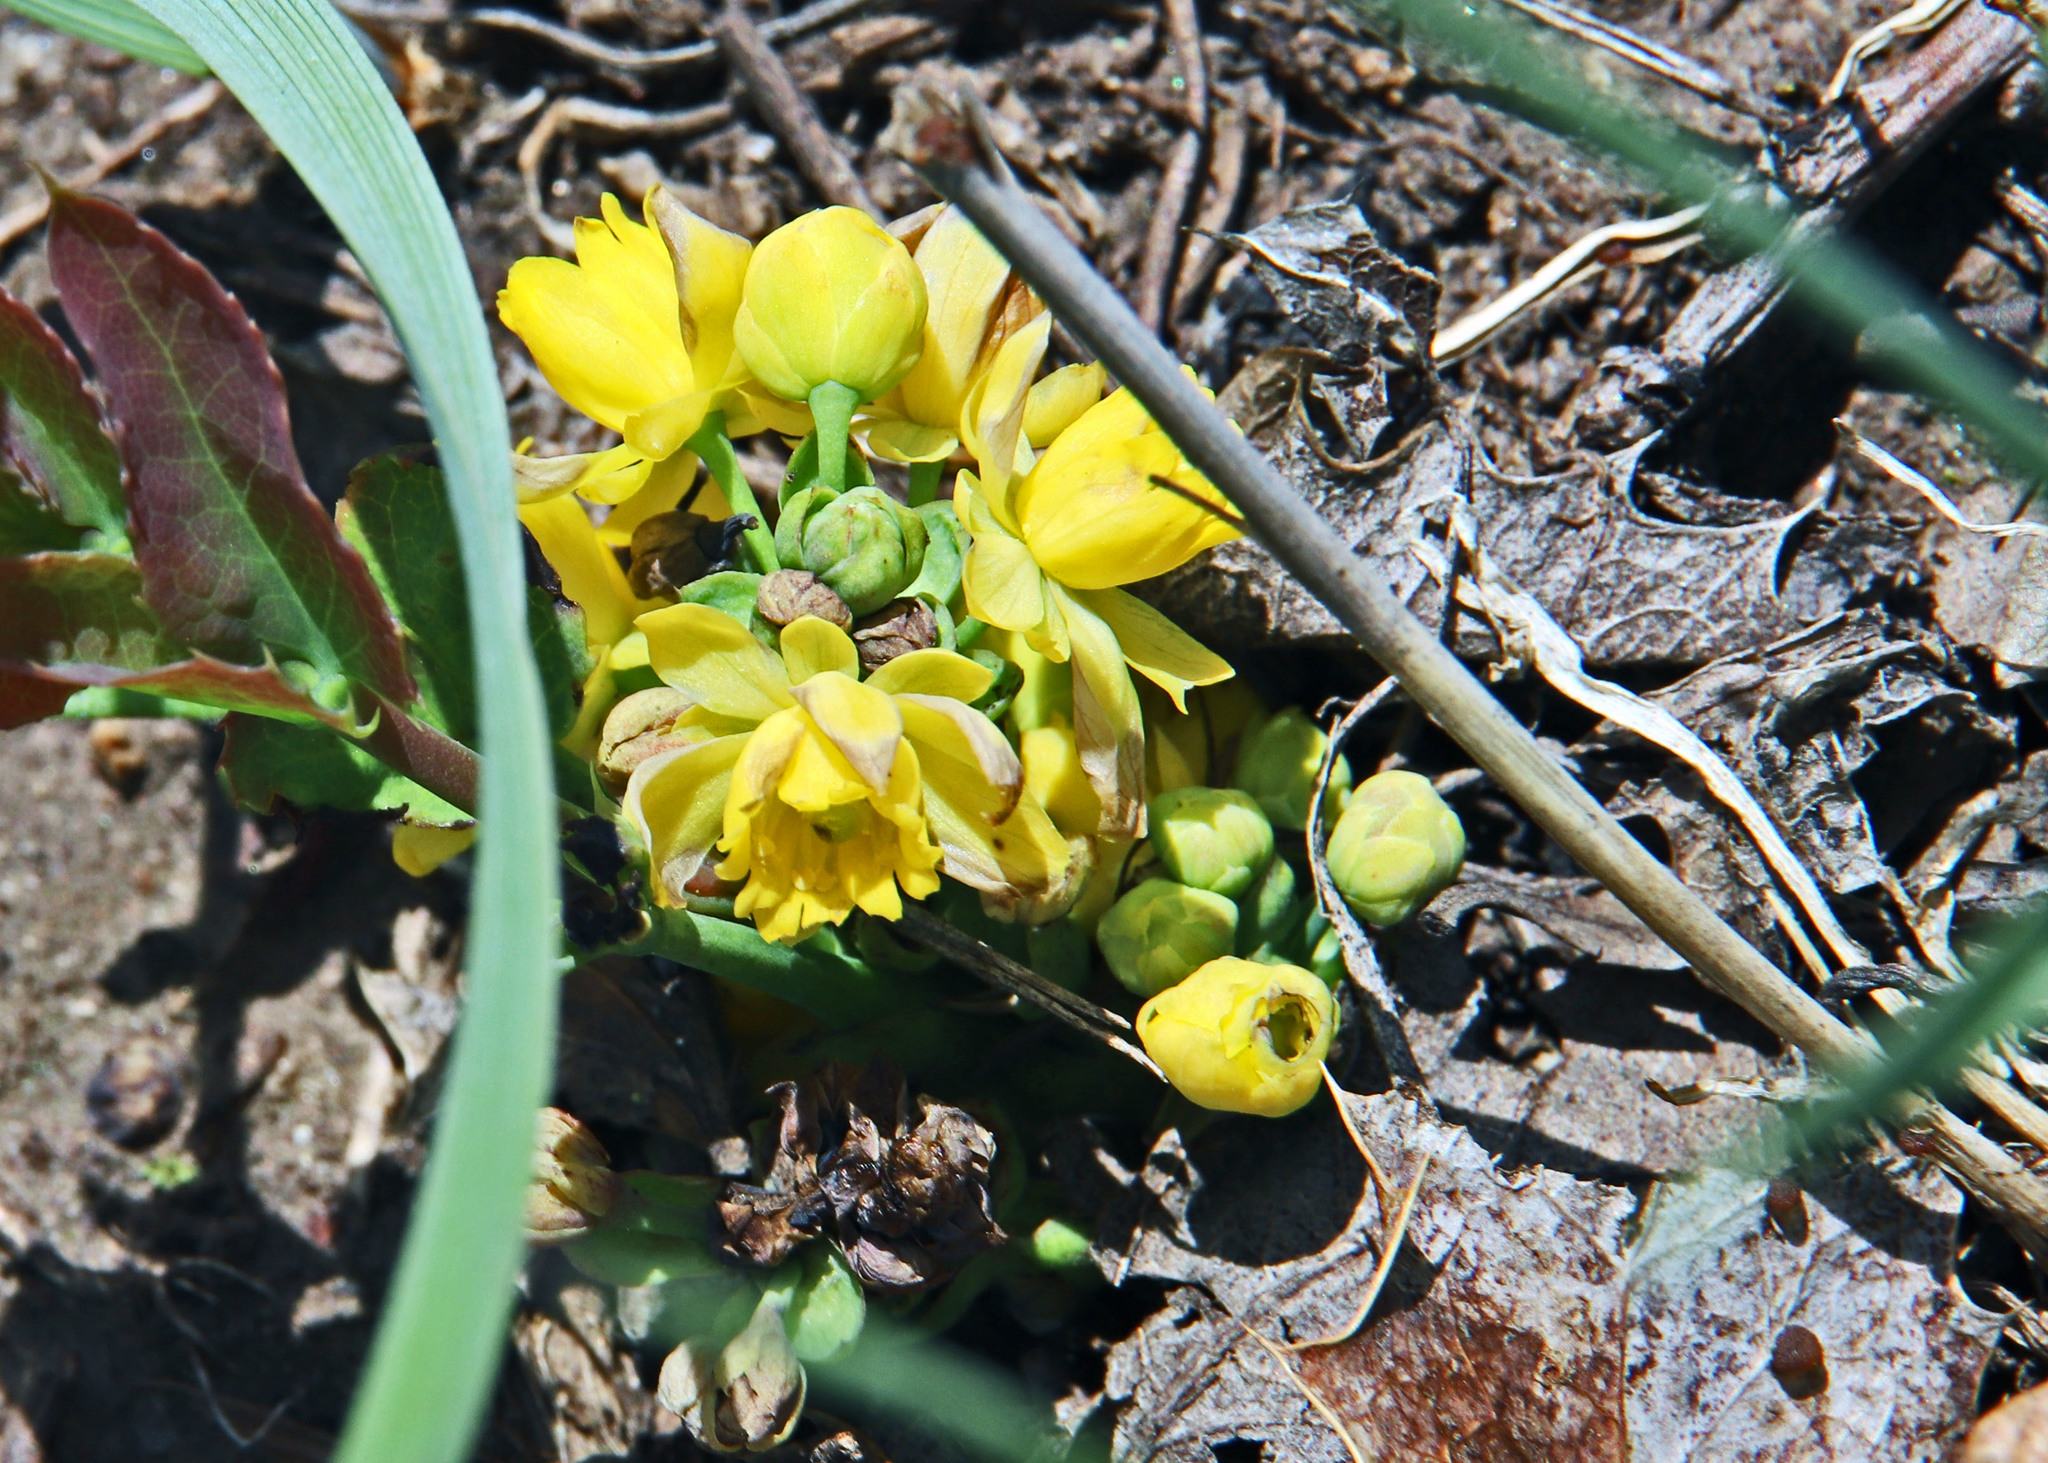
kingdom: Plantae
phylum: Tracheophyta
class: Magnoliopsida
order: Ranunculales
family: Berberidaceae
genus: Mahonia
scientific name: Mahonia repens
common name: Creeping oregon-grape
